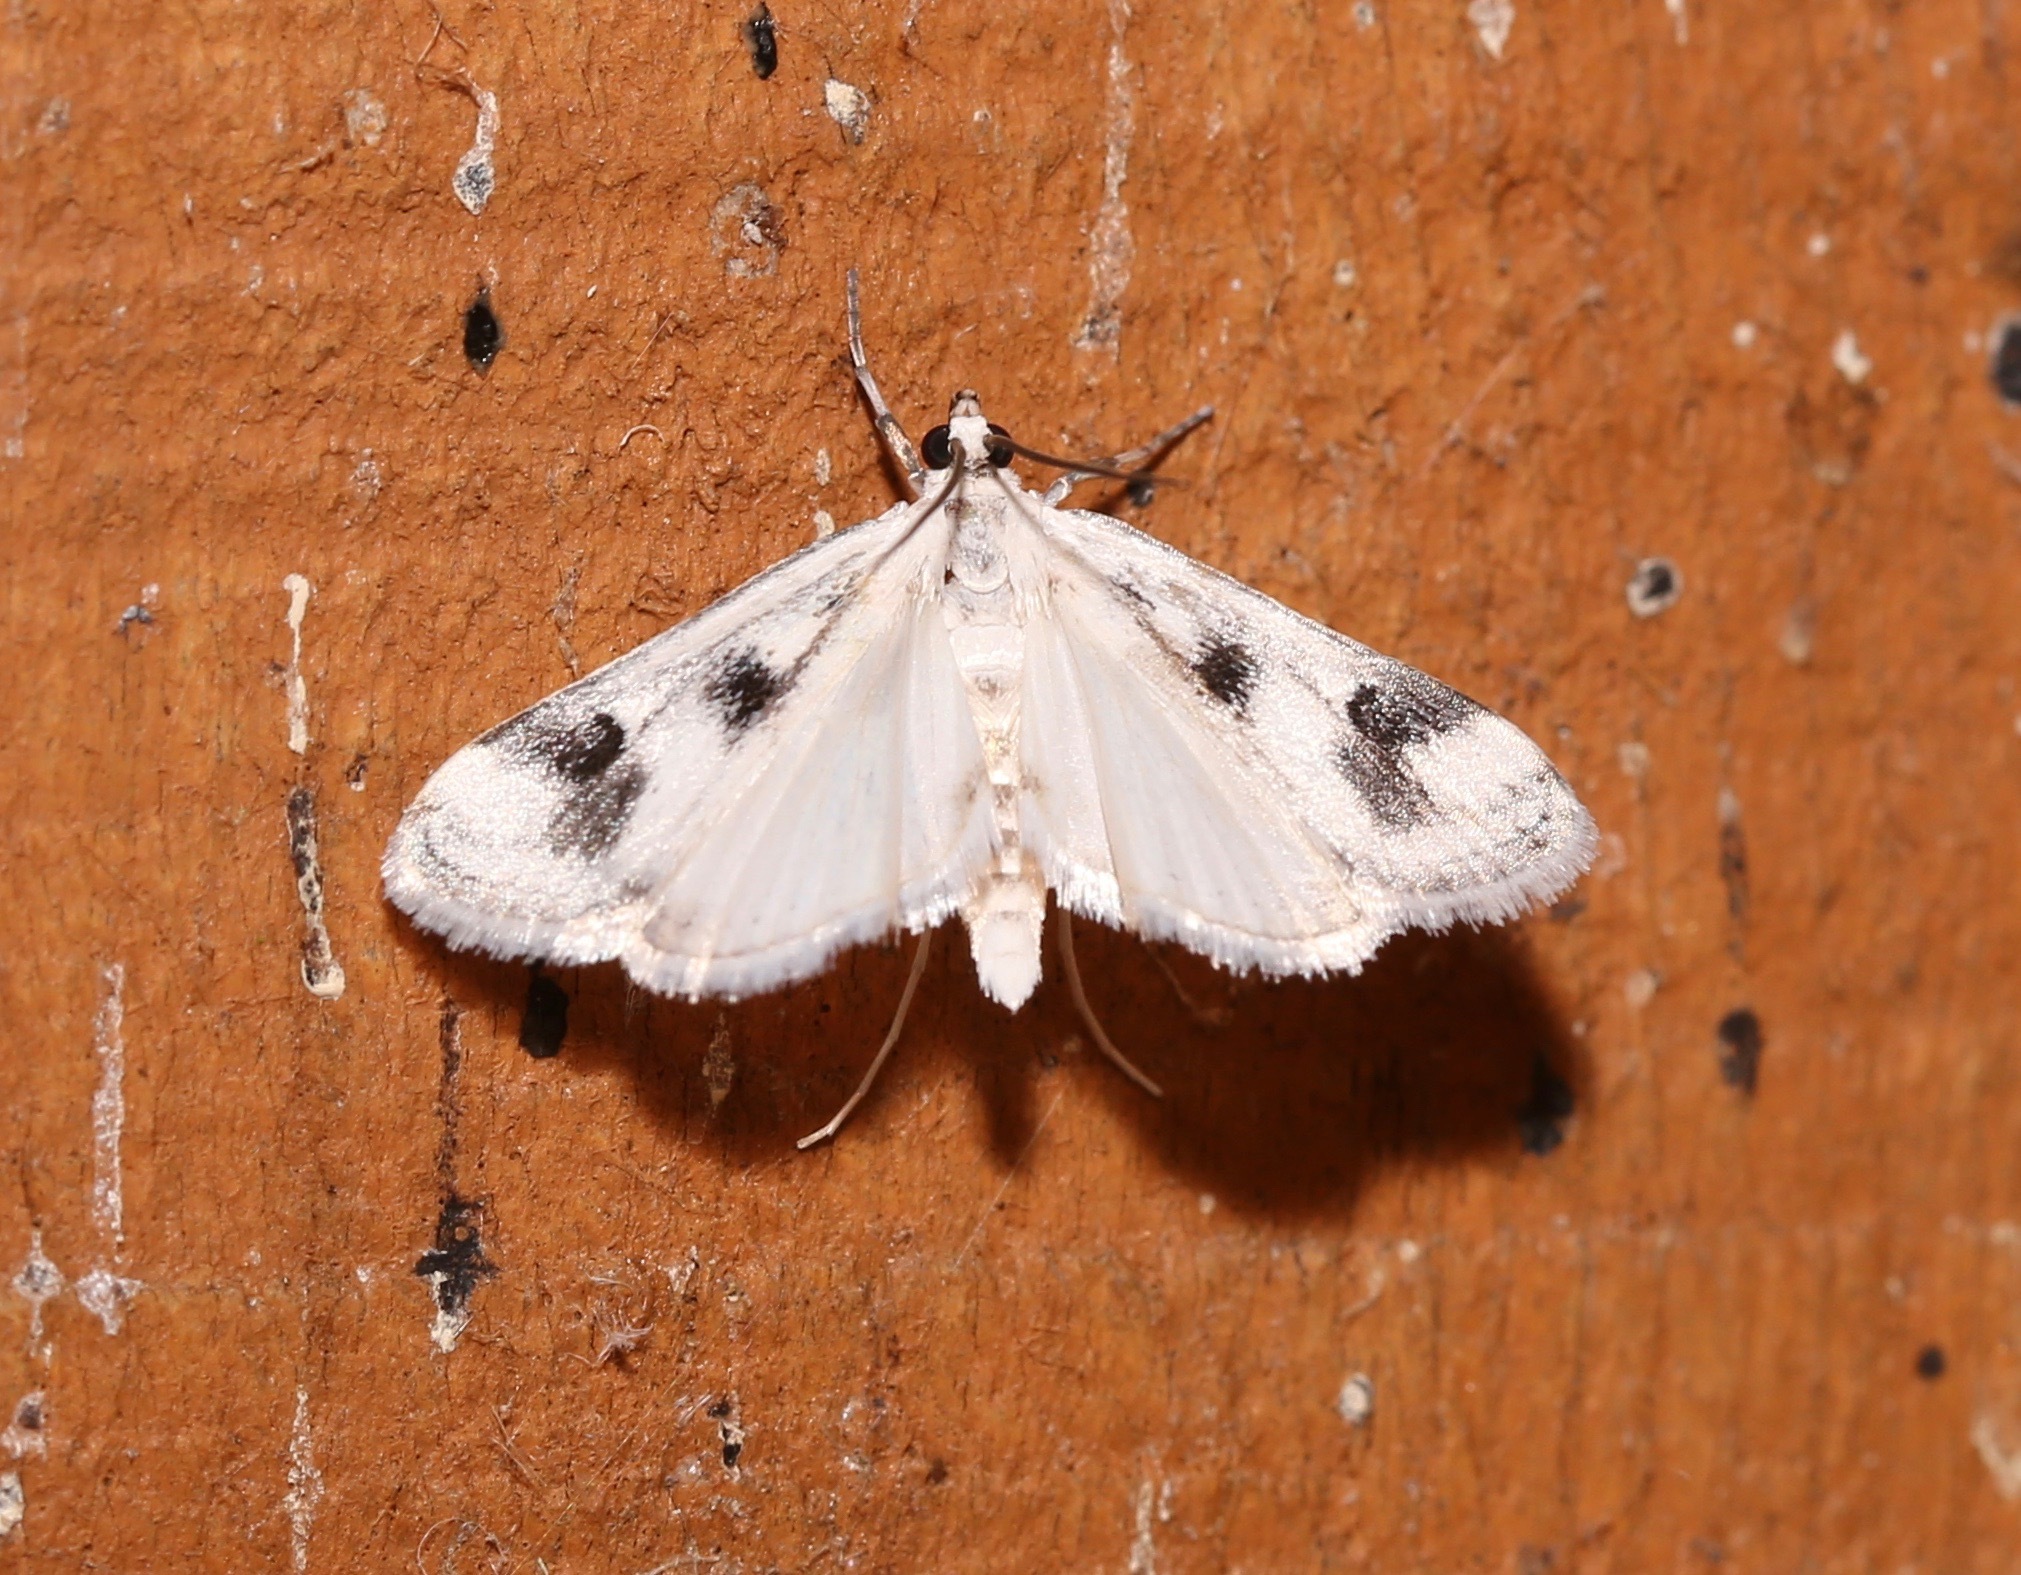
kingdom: Animalia
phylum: Arthropoda
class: Insecta
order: Lepidoptera
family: Crambidae
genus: Parapoynx
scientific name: Parapoynx maculalis
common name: Polymorphic pondweed moth
